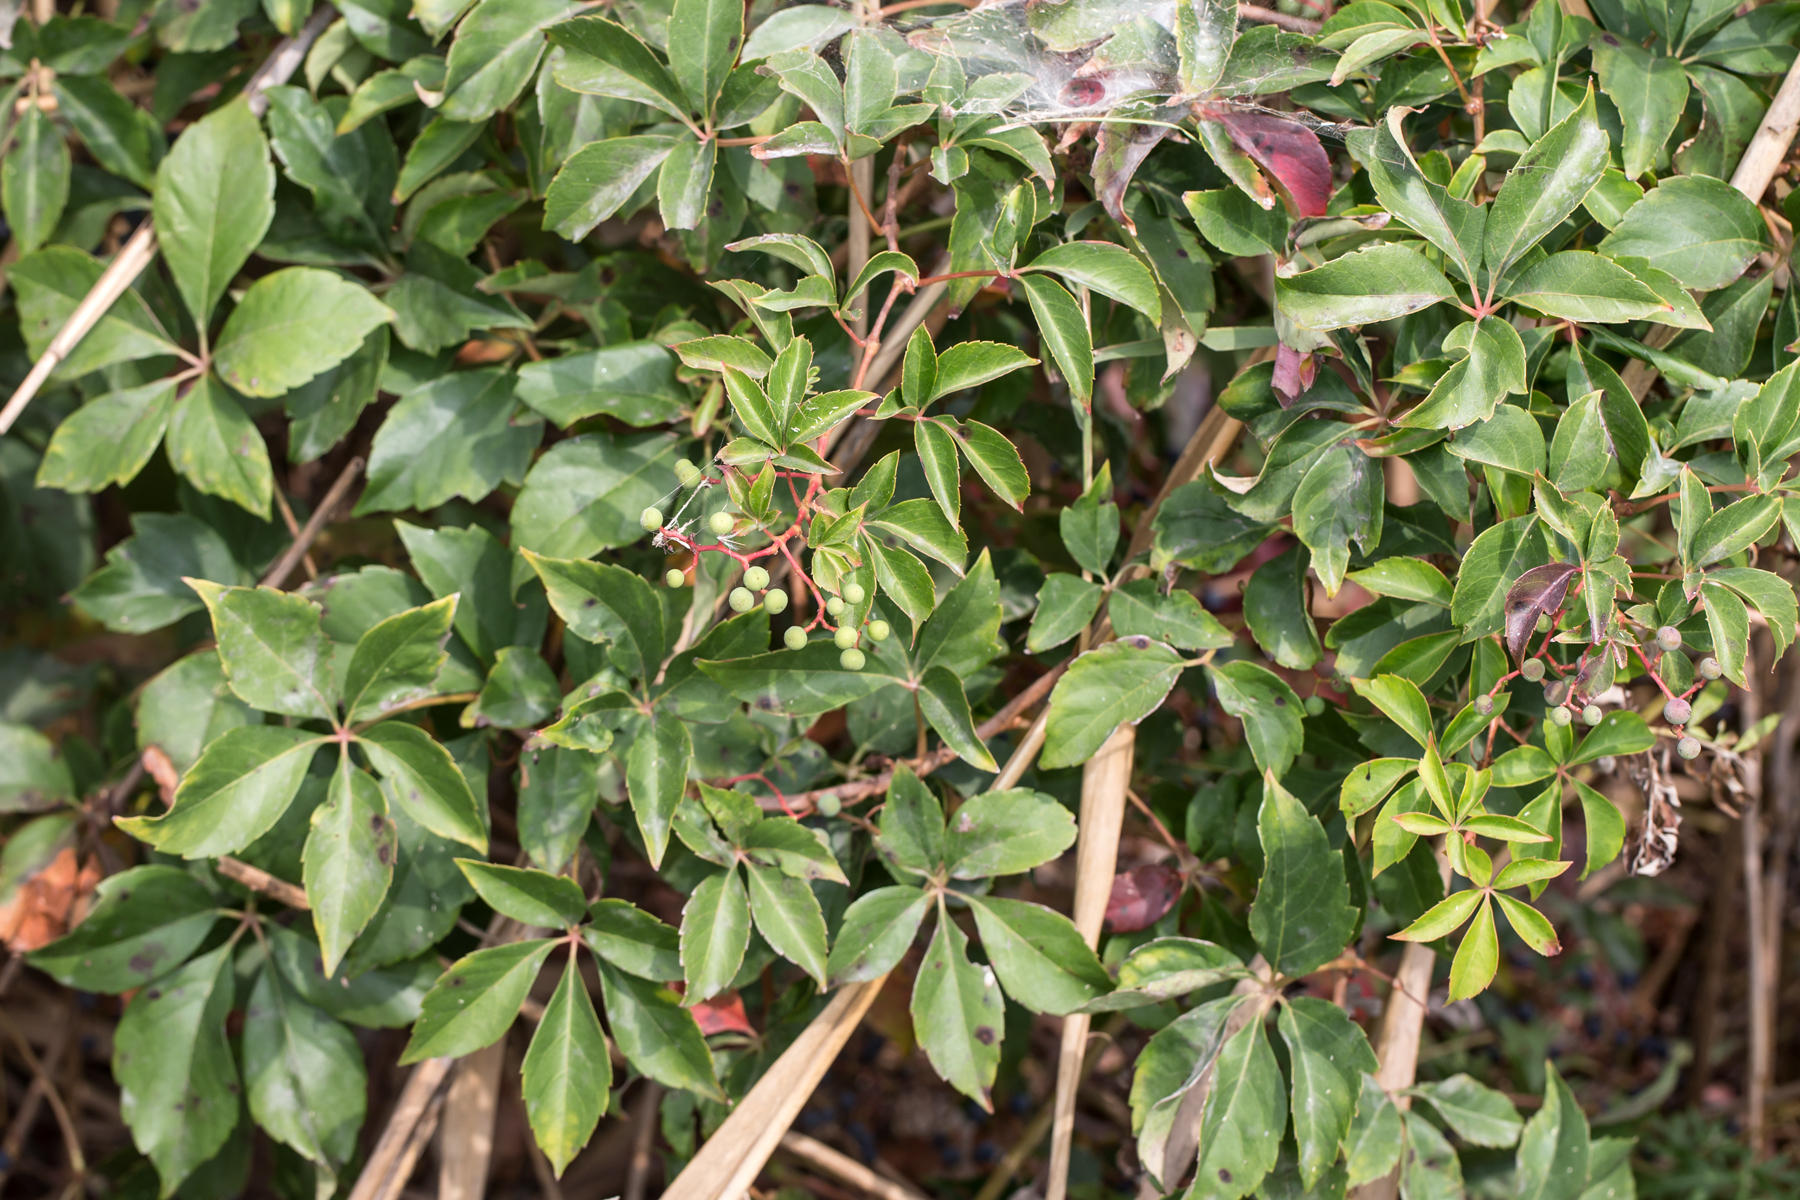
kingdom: Plantae
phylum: Tracheophyta
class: Magnoliopsida
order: Vitales
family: Vitaceae
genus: Parthenocissus
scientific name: Parthenocissus quinquefolia
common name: Virginia-creeper
